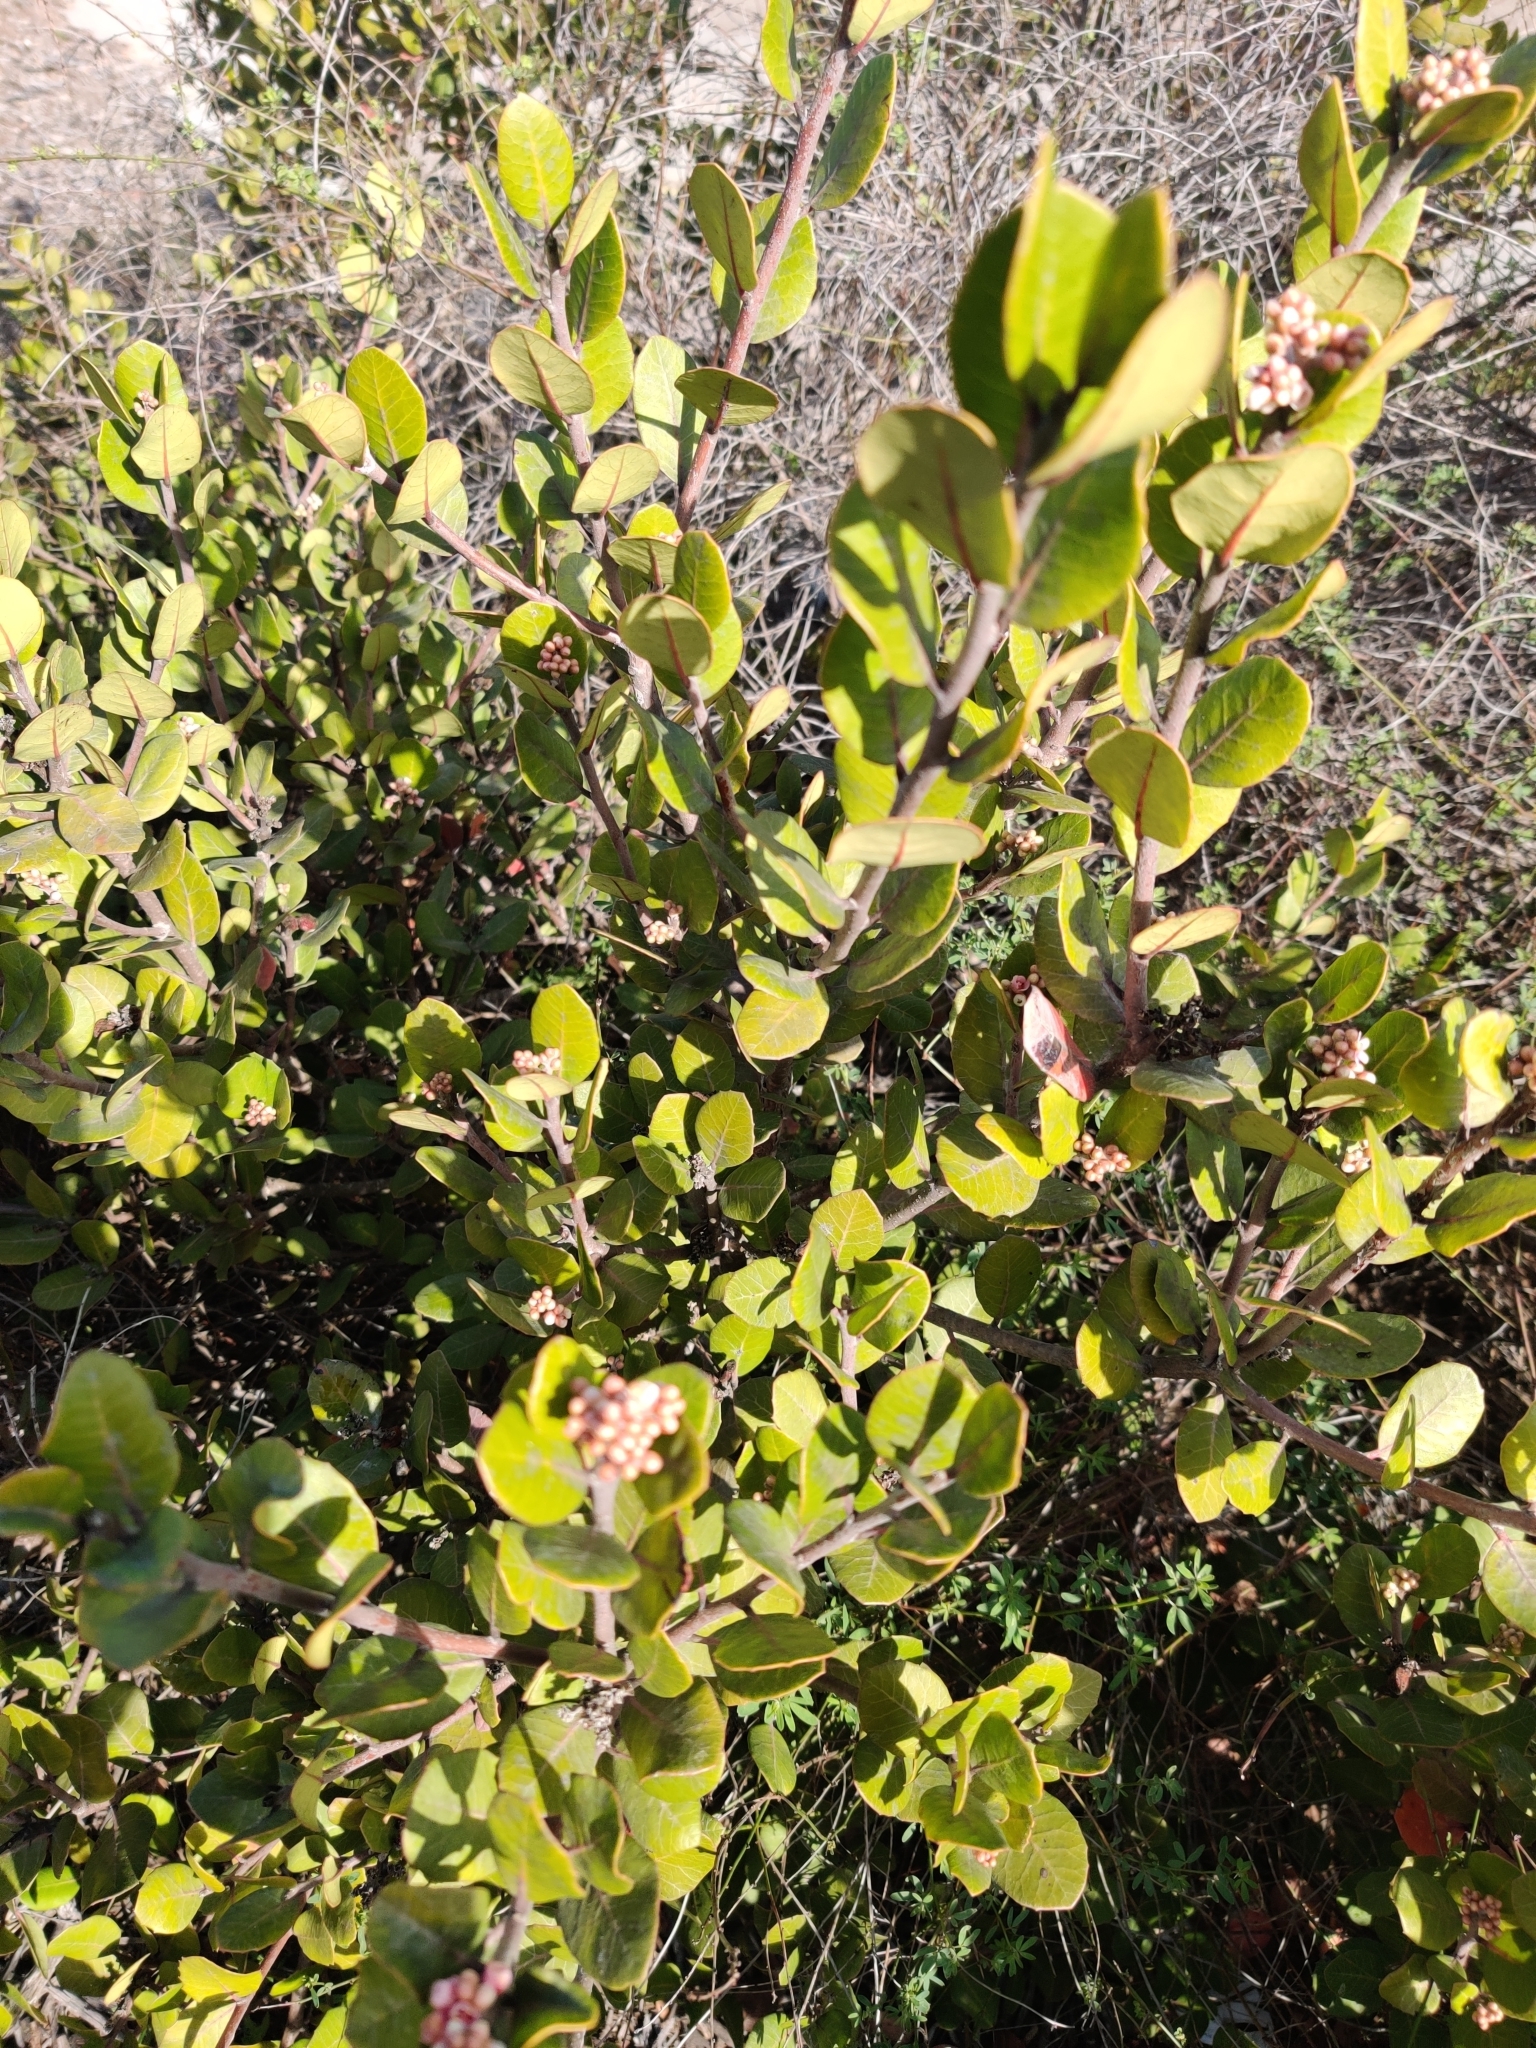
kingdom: Plantae
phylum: Tracheophyta
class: Magnoliopsida
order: Sapindales
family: Anacardiaceae
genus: Rhus
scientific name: Rhus integrifolia
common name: Lemonade sumac
